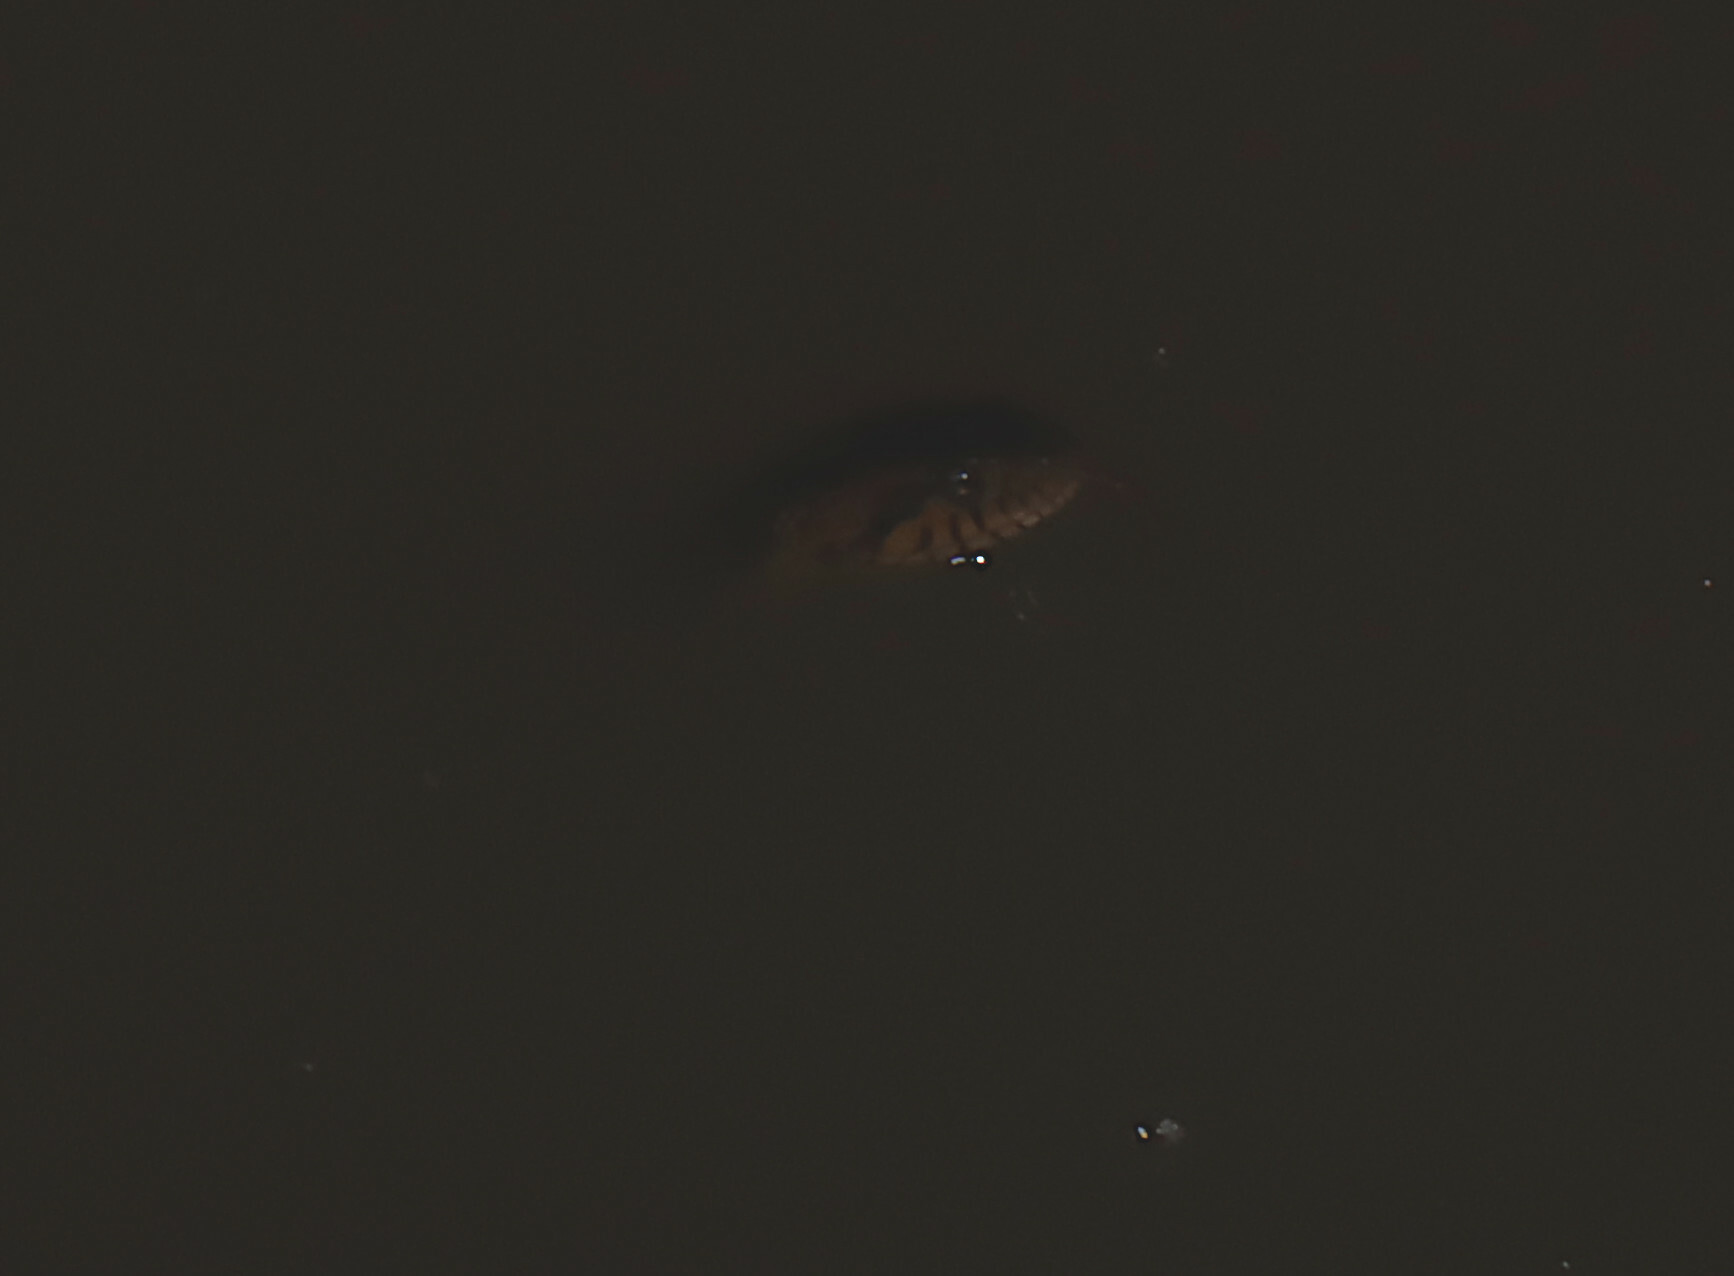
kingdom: Animalia
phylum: Chordata
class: Squamata
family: Colubridae
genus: Nerodia
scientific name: Nerodia fasciata
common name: Southern water snake
